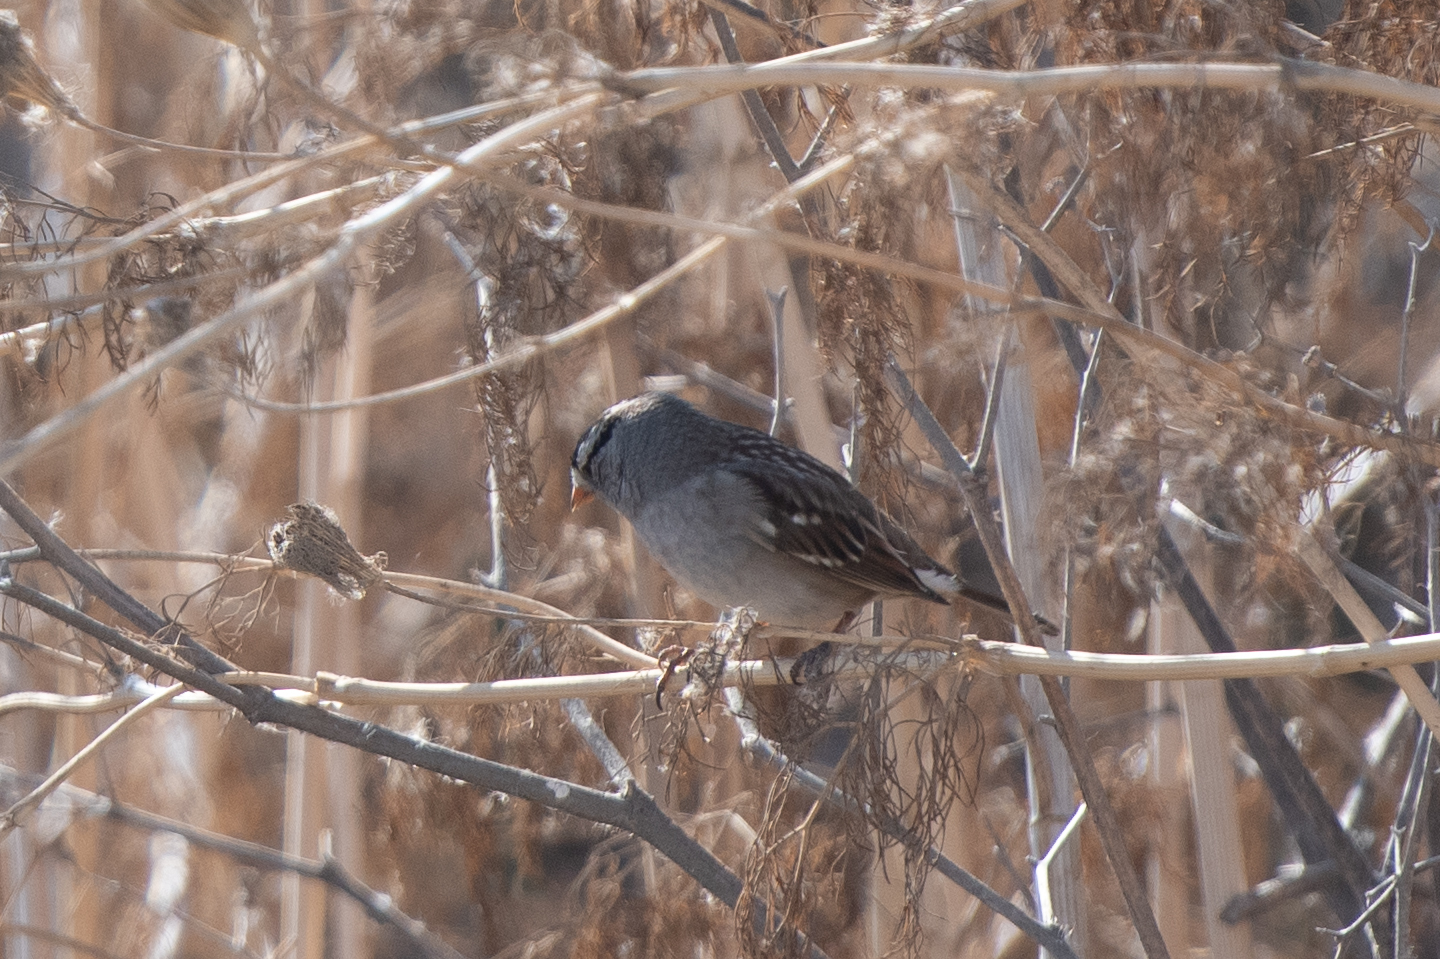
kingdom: Animalia
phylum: Chordata
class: Aves
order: Passeriformes
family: Passerellidae
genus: Zonotrichia
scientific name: Zonotrichia leucophrys
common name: White-crowned sparrow
